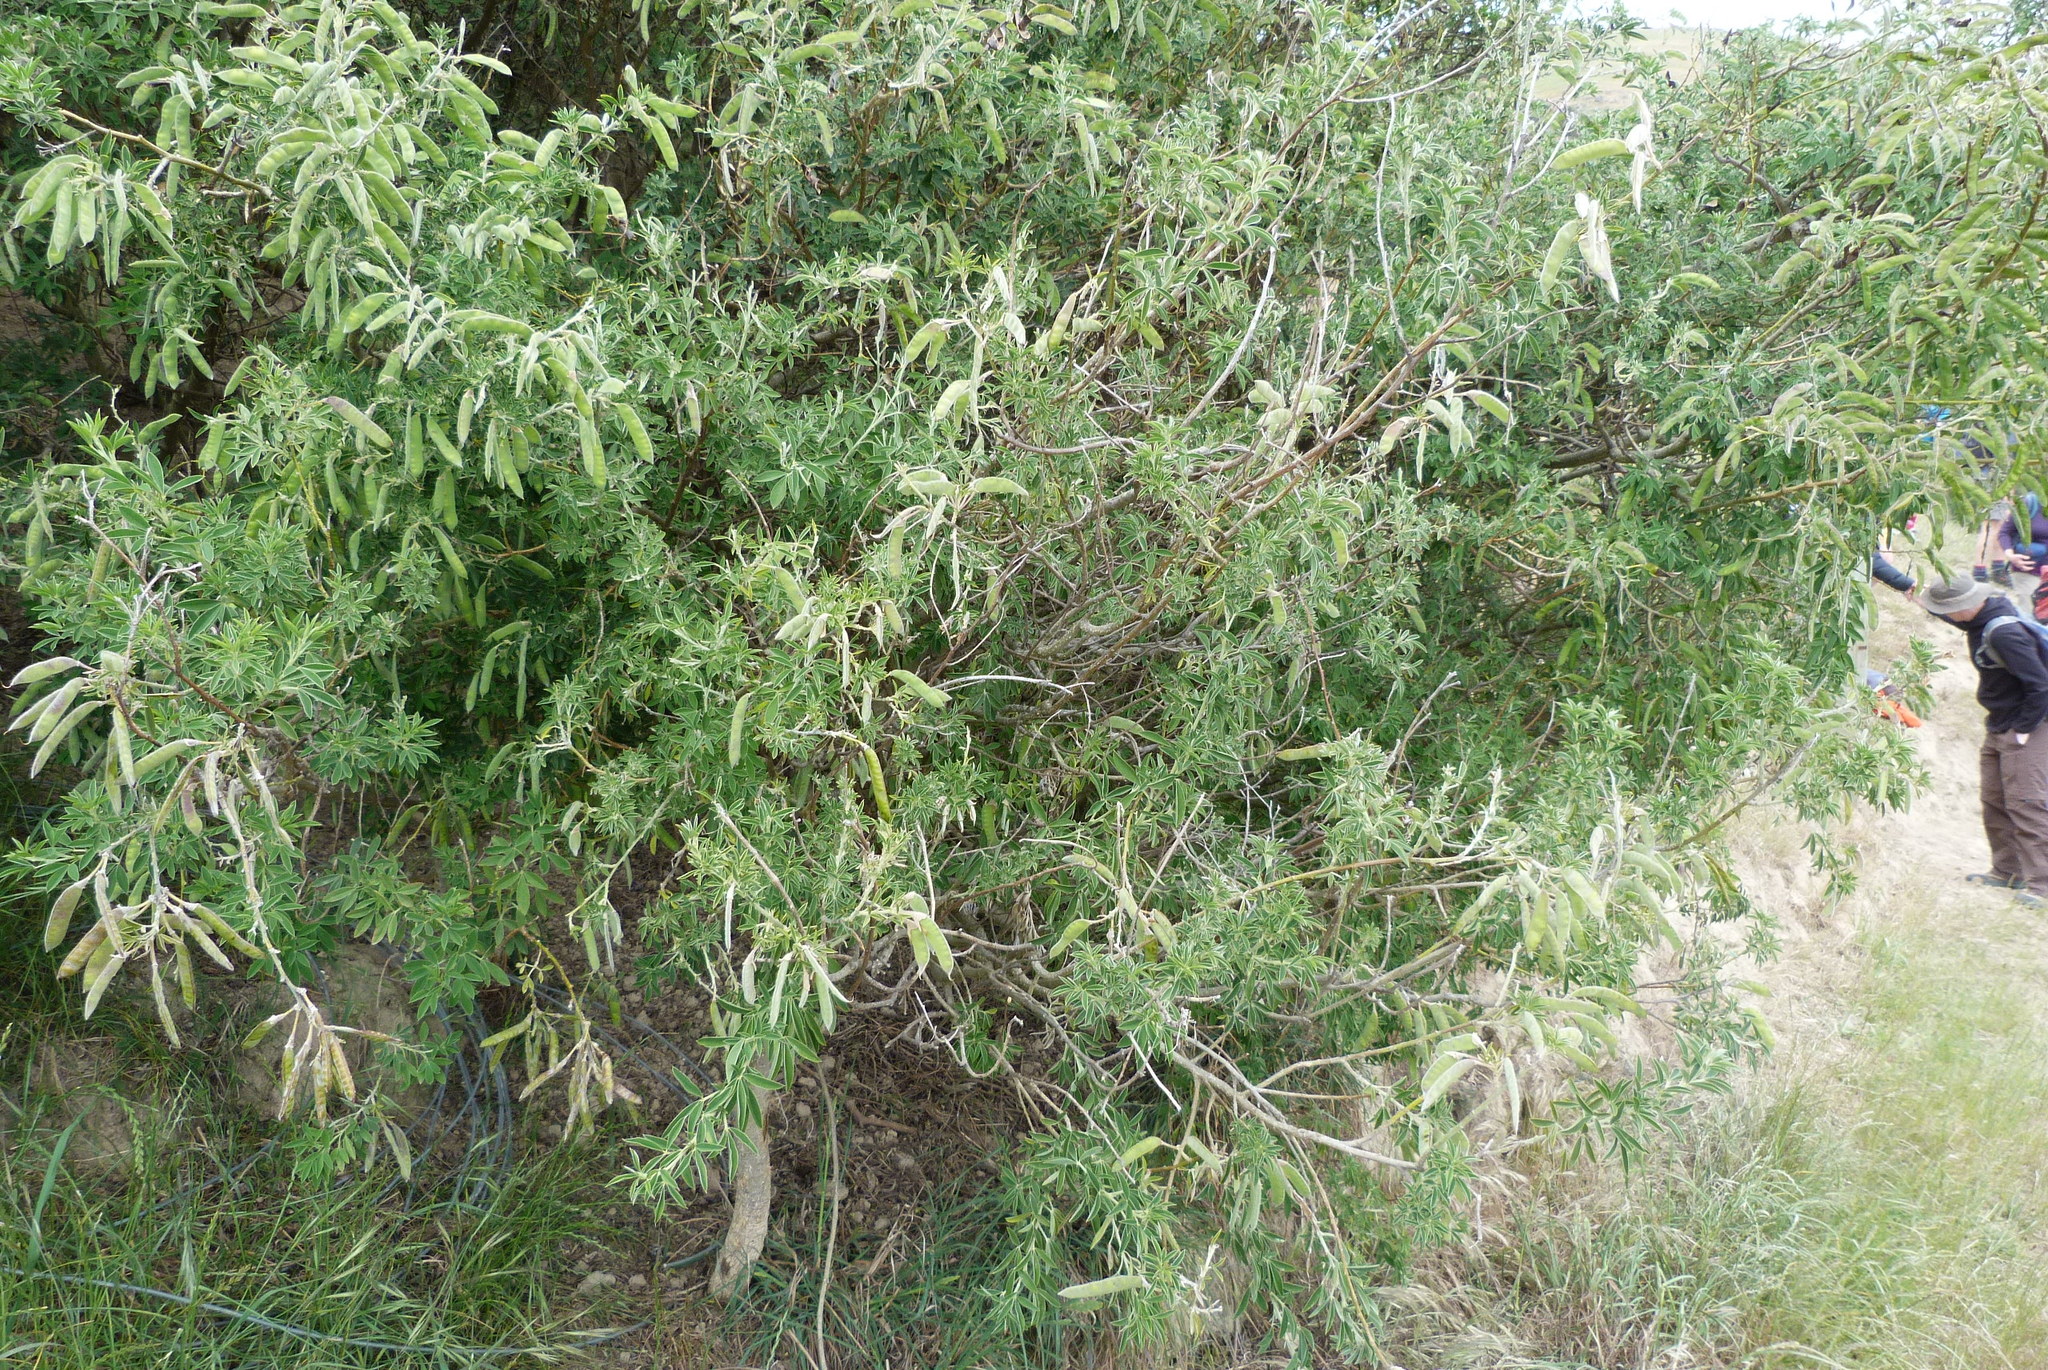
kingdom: Plantae
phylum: Tracheophyta
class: Magnoliopsida
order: Fabales
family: Fabaceae
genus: Chamaecytisus
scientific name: Chamaecytisus prolifer
